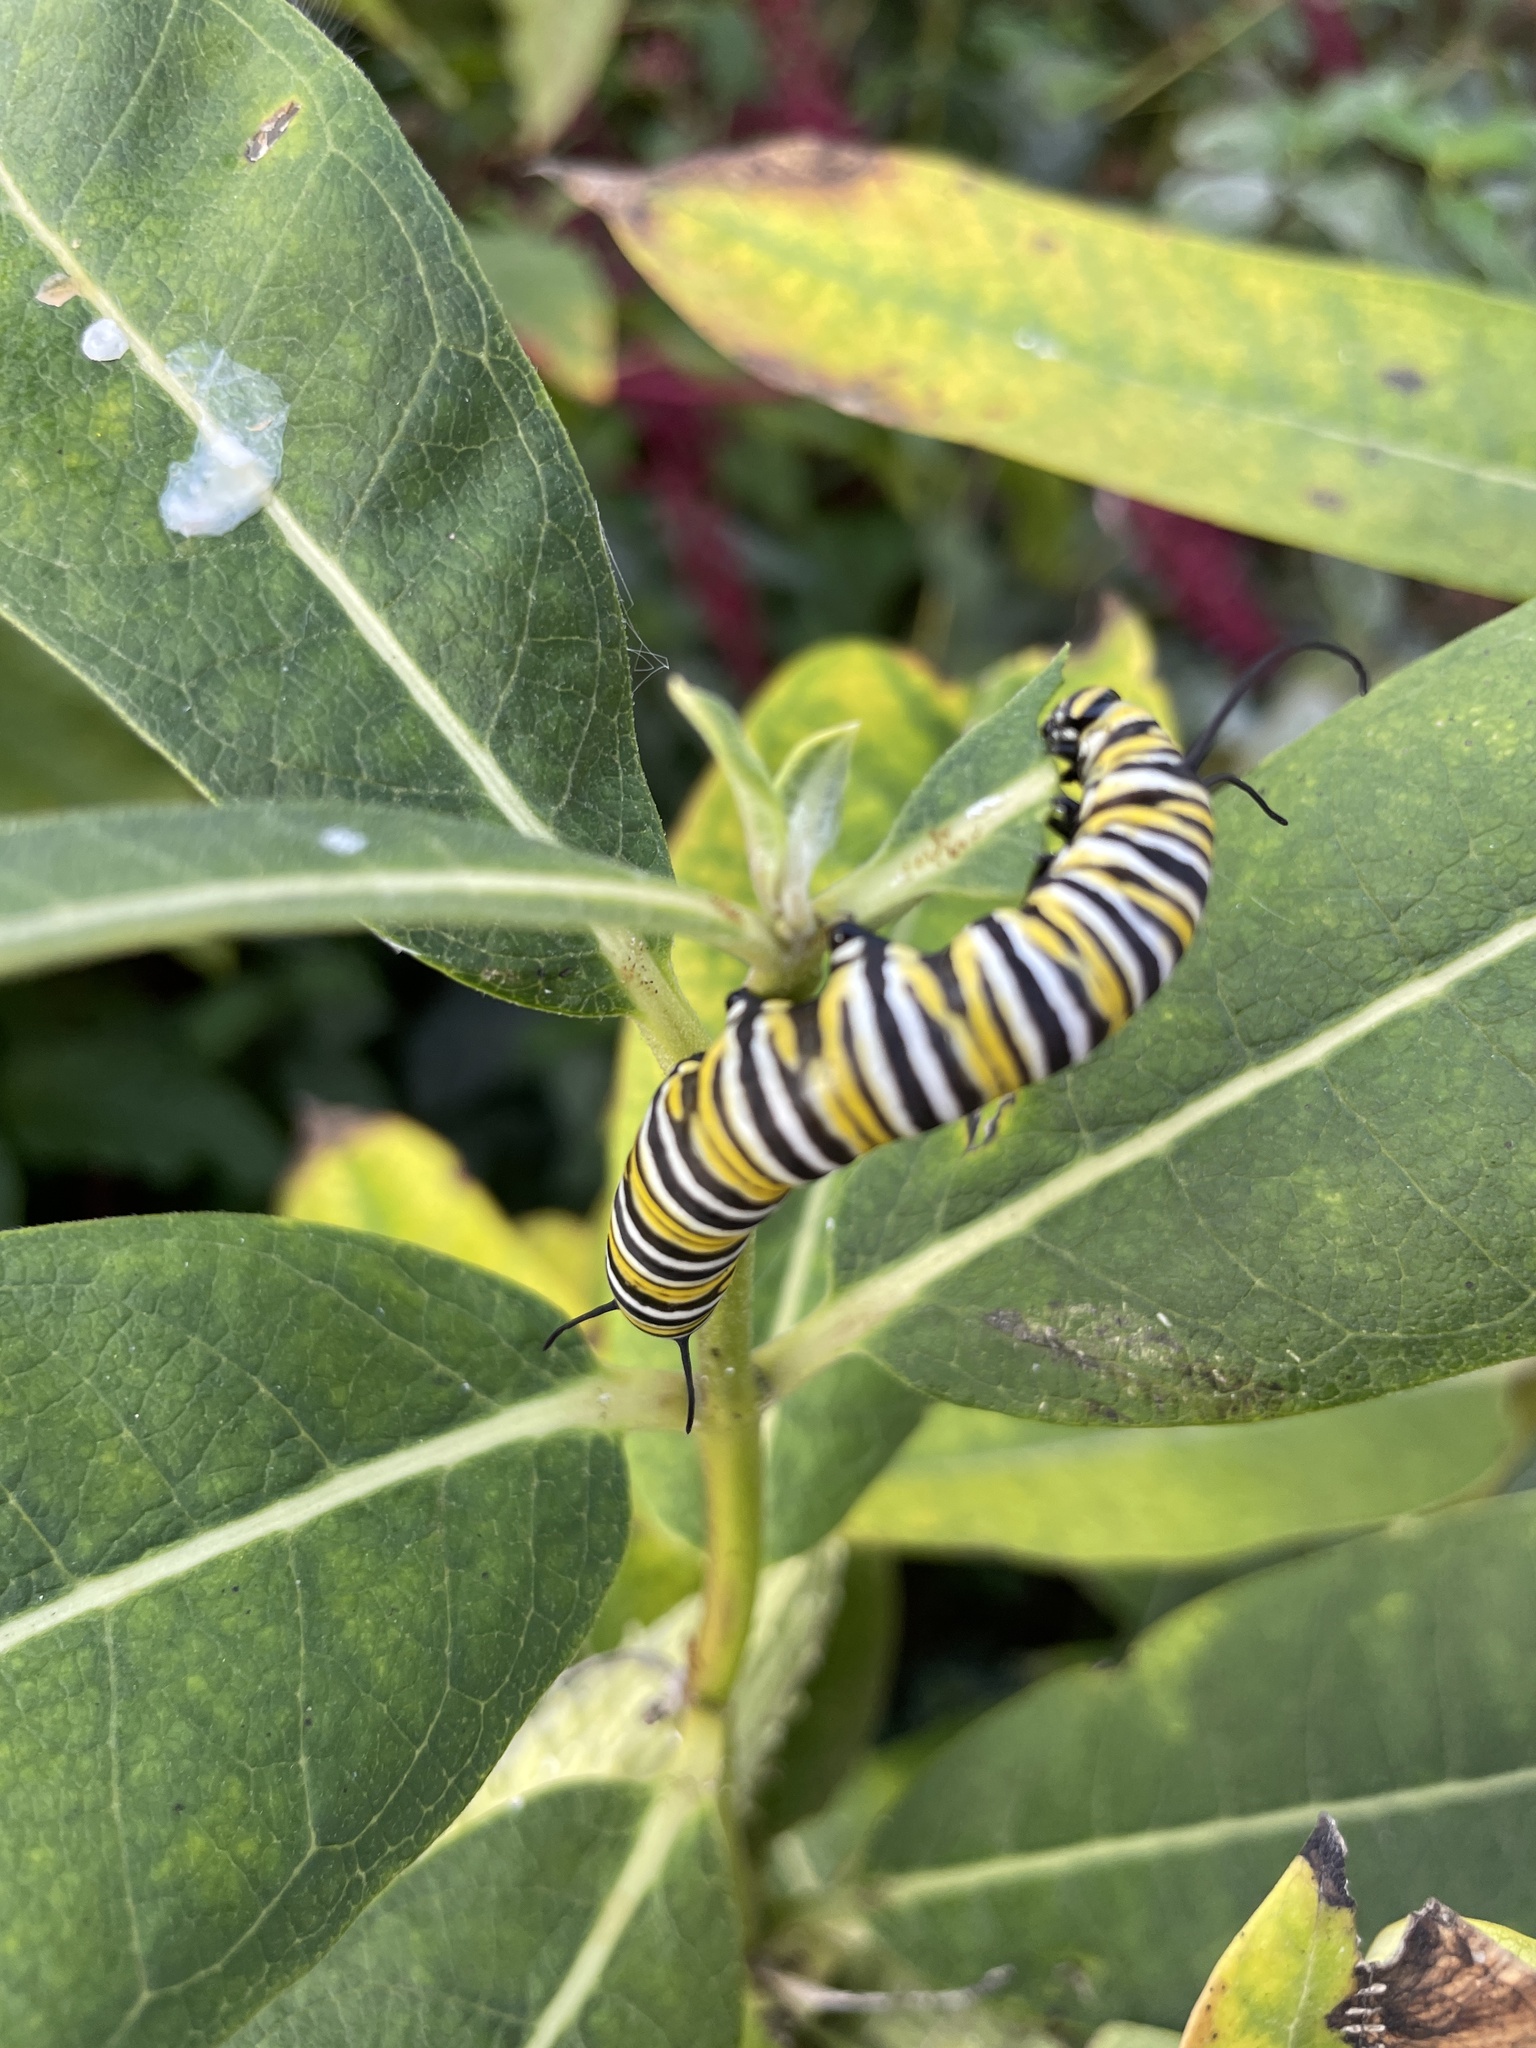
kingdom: Animalia
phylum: Arthropoda
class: Insecta
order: Lepidoptera
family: Nymphalidae
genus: Danaus
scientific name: Danaus plexippus
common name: Monarch
